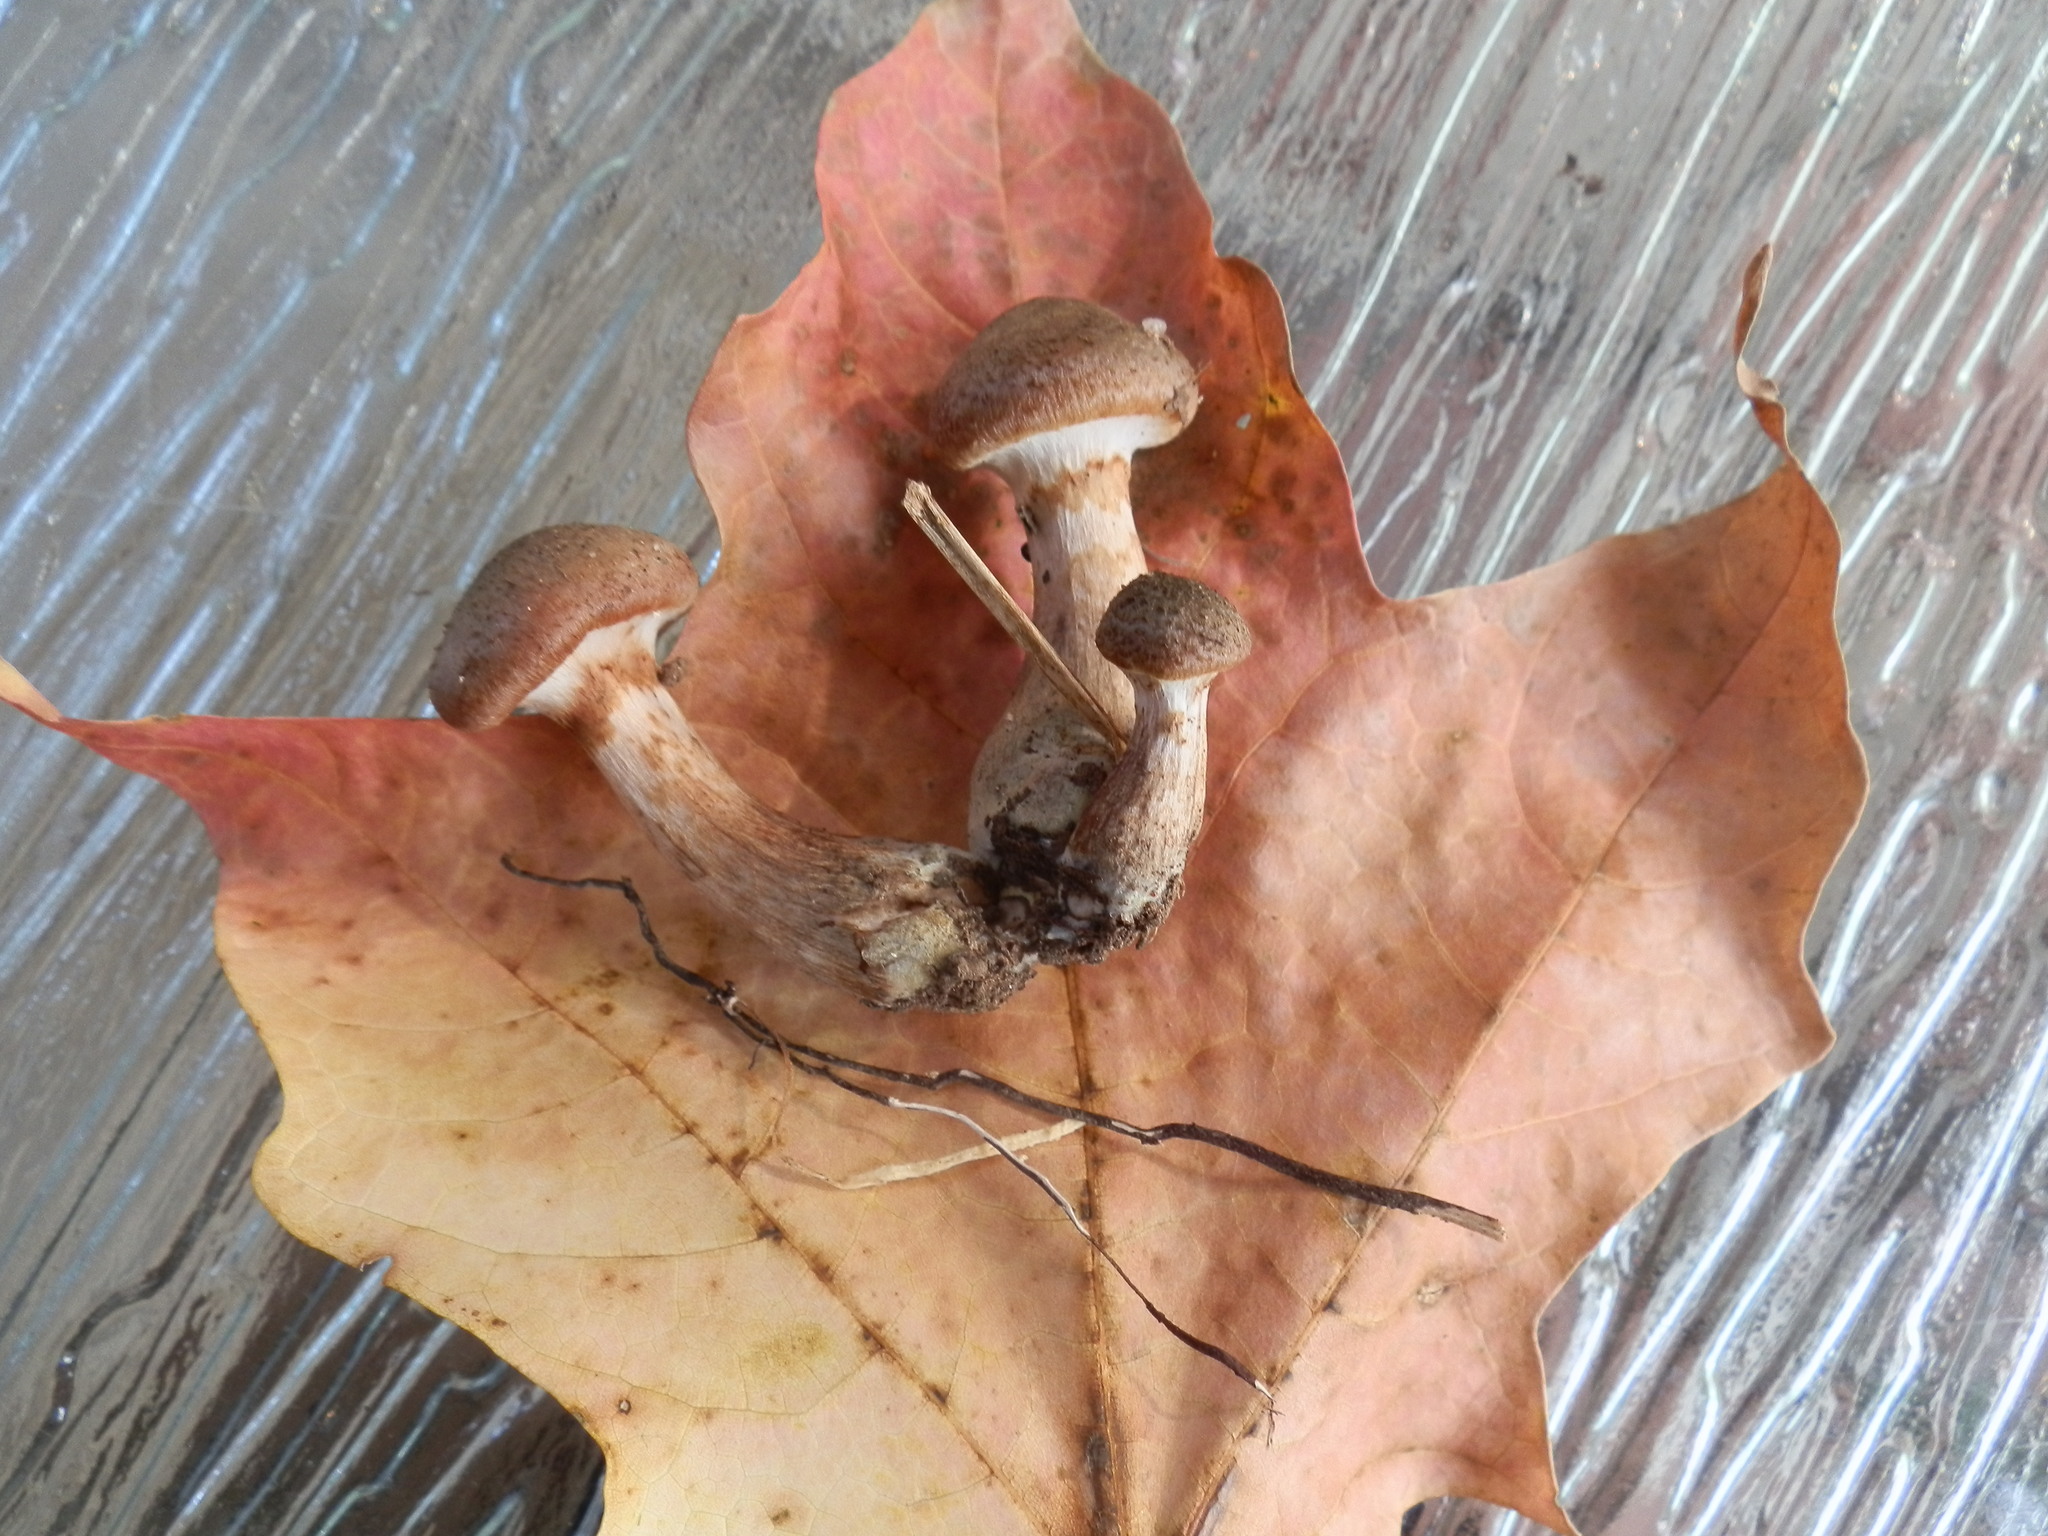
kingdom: Fungi
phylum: Basidiomycota
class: Agaricomycetes
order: Agaricales
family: Physalacriaceae
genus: Armillaria
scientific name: Armillaria gemina
